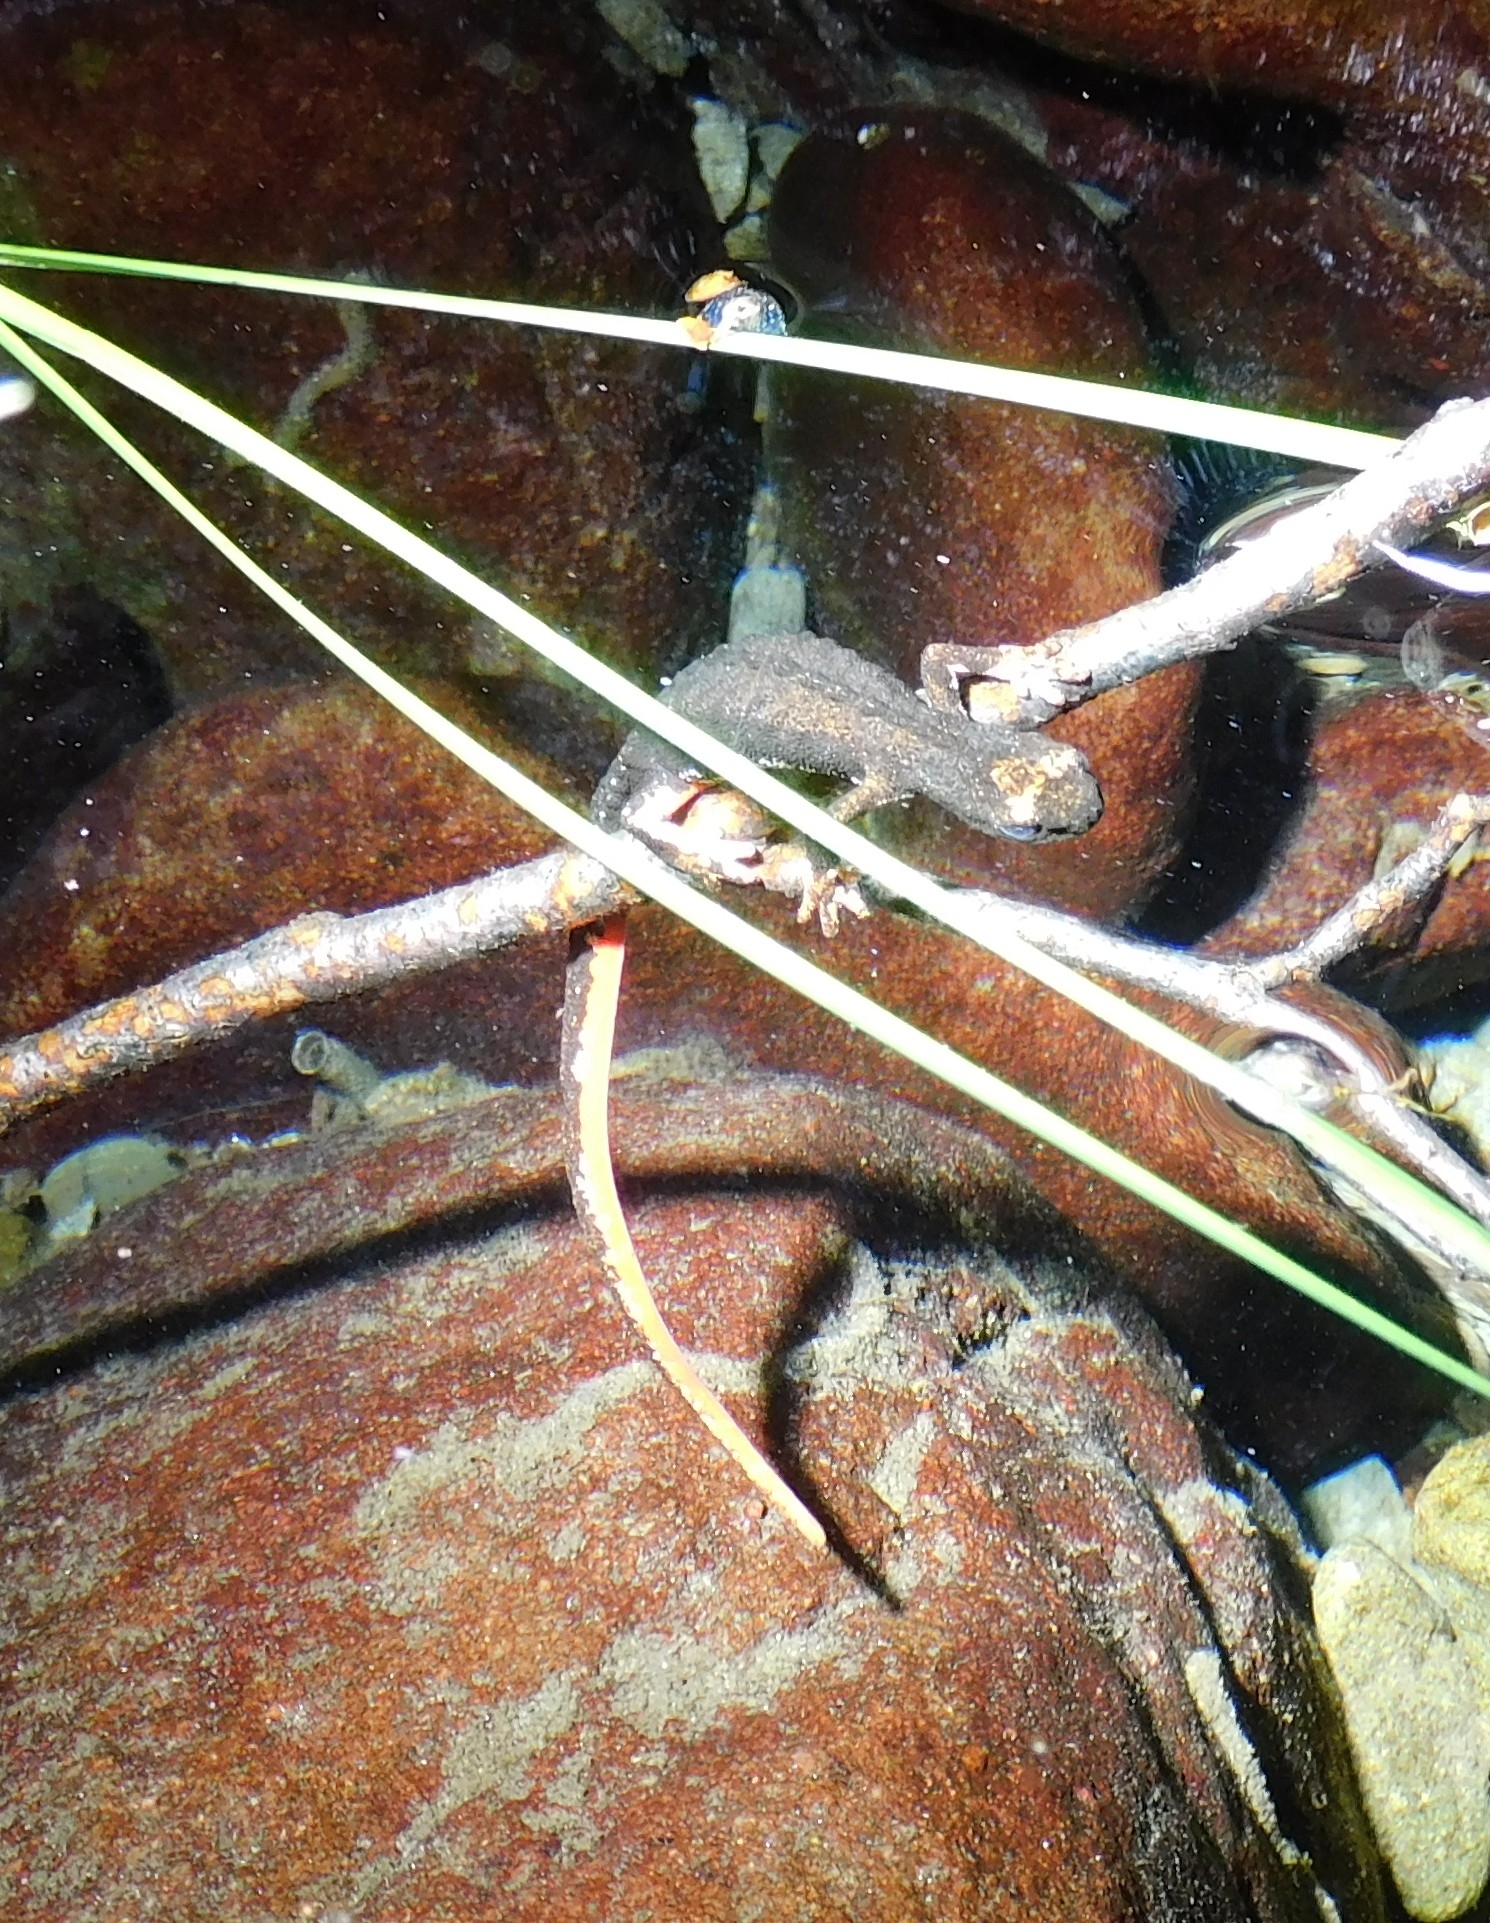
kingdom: Animalia
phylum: Chordata
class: Amphibia
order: Caudata
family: Salamandridae
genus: Salamandrina
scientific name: Salamandrina perspicillata
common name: Northern spectacled salamander
